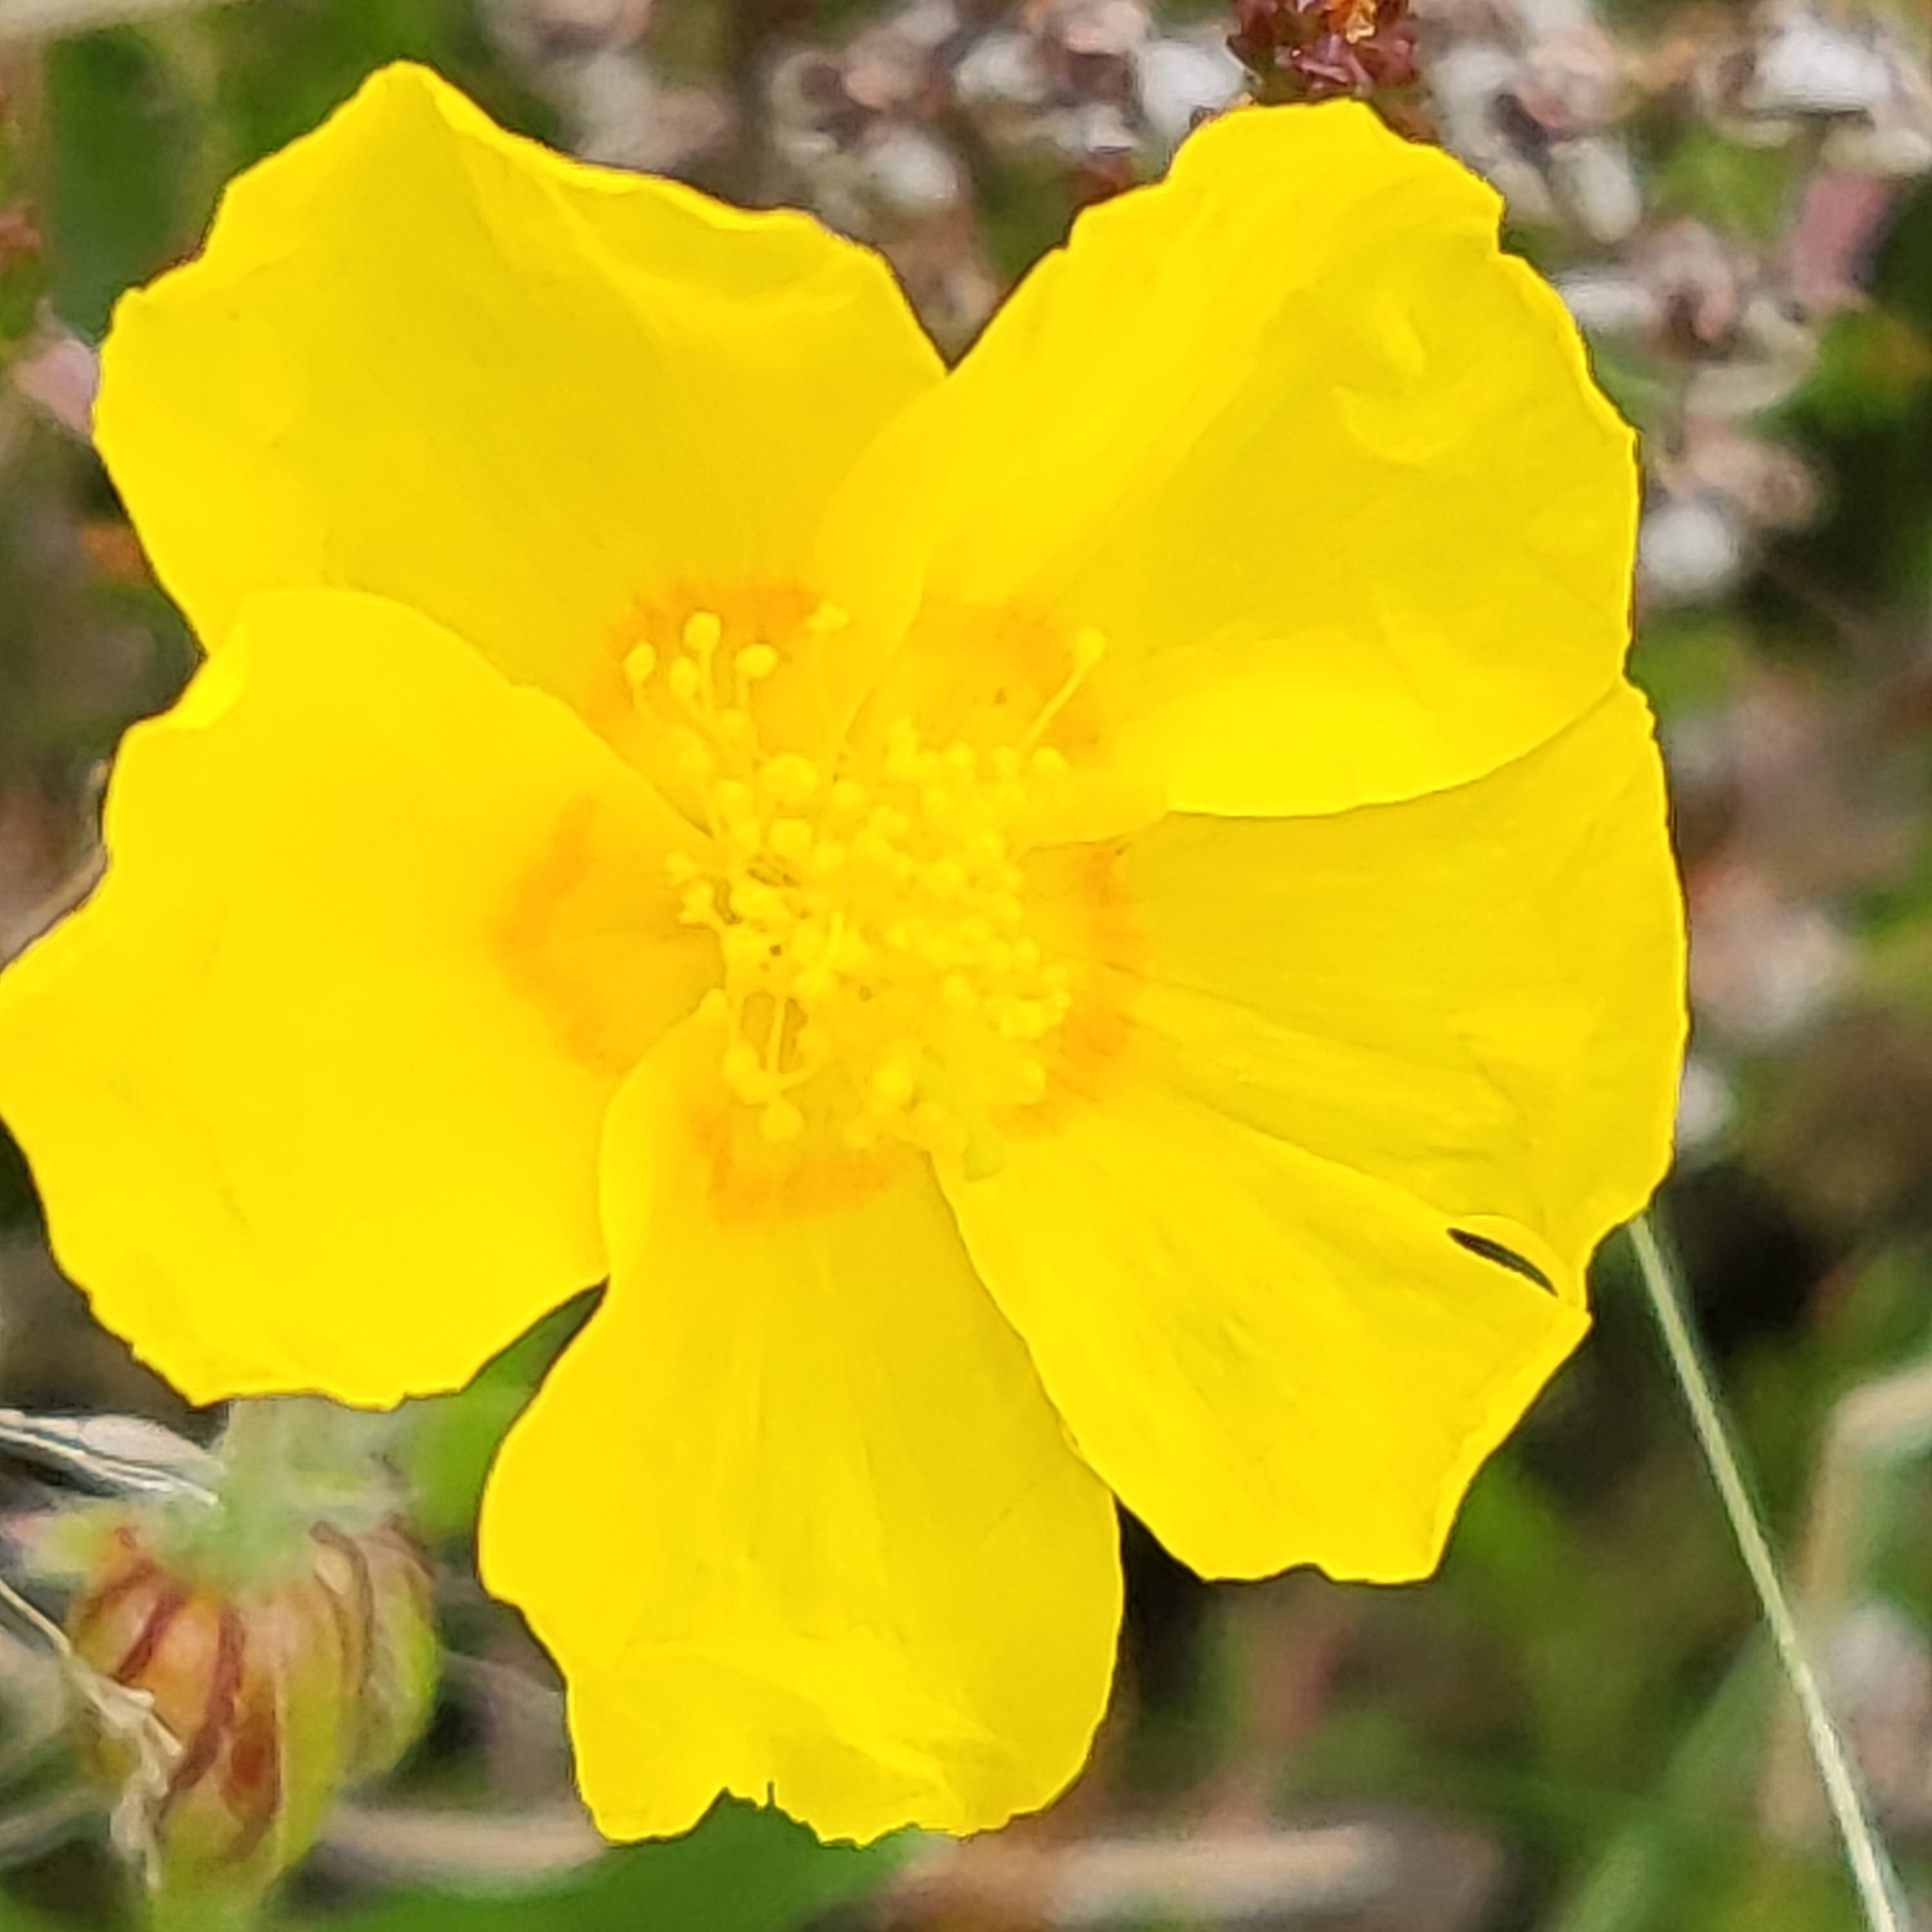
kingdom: Plantae
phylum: Tracheophyta
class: Magnoliopsida
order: Malvales
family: Cistaceae
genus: Helianthemum
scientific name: Helianthemum nummularium
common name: Common rock-rose
